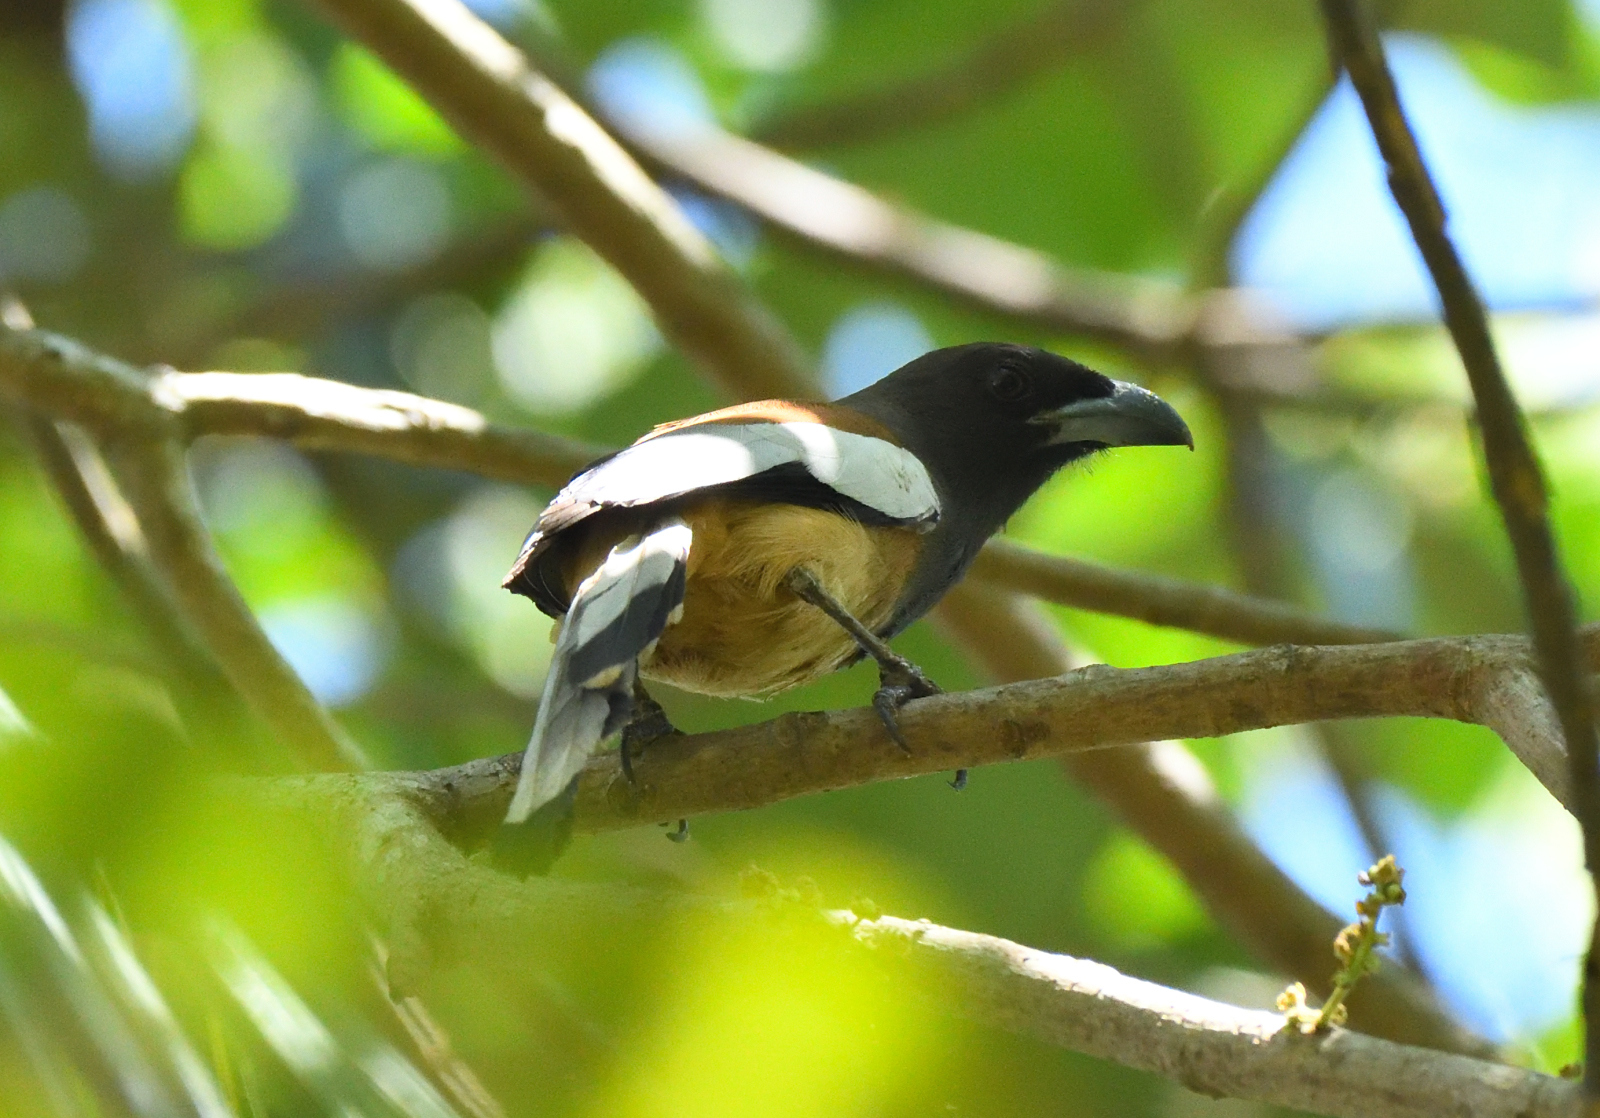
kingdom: Animalia
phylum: Chordata
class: Aves
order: Passeriformes
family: Corvidae
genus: Dendrocitta
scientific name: Dendrocitta vagabunda
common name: Rufous treepie
